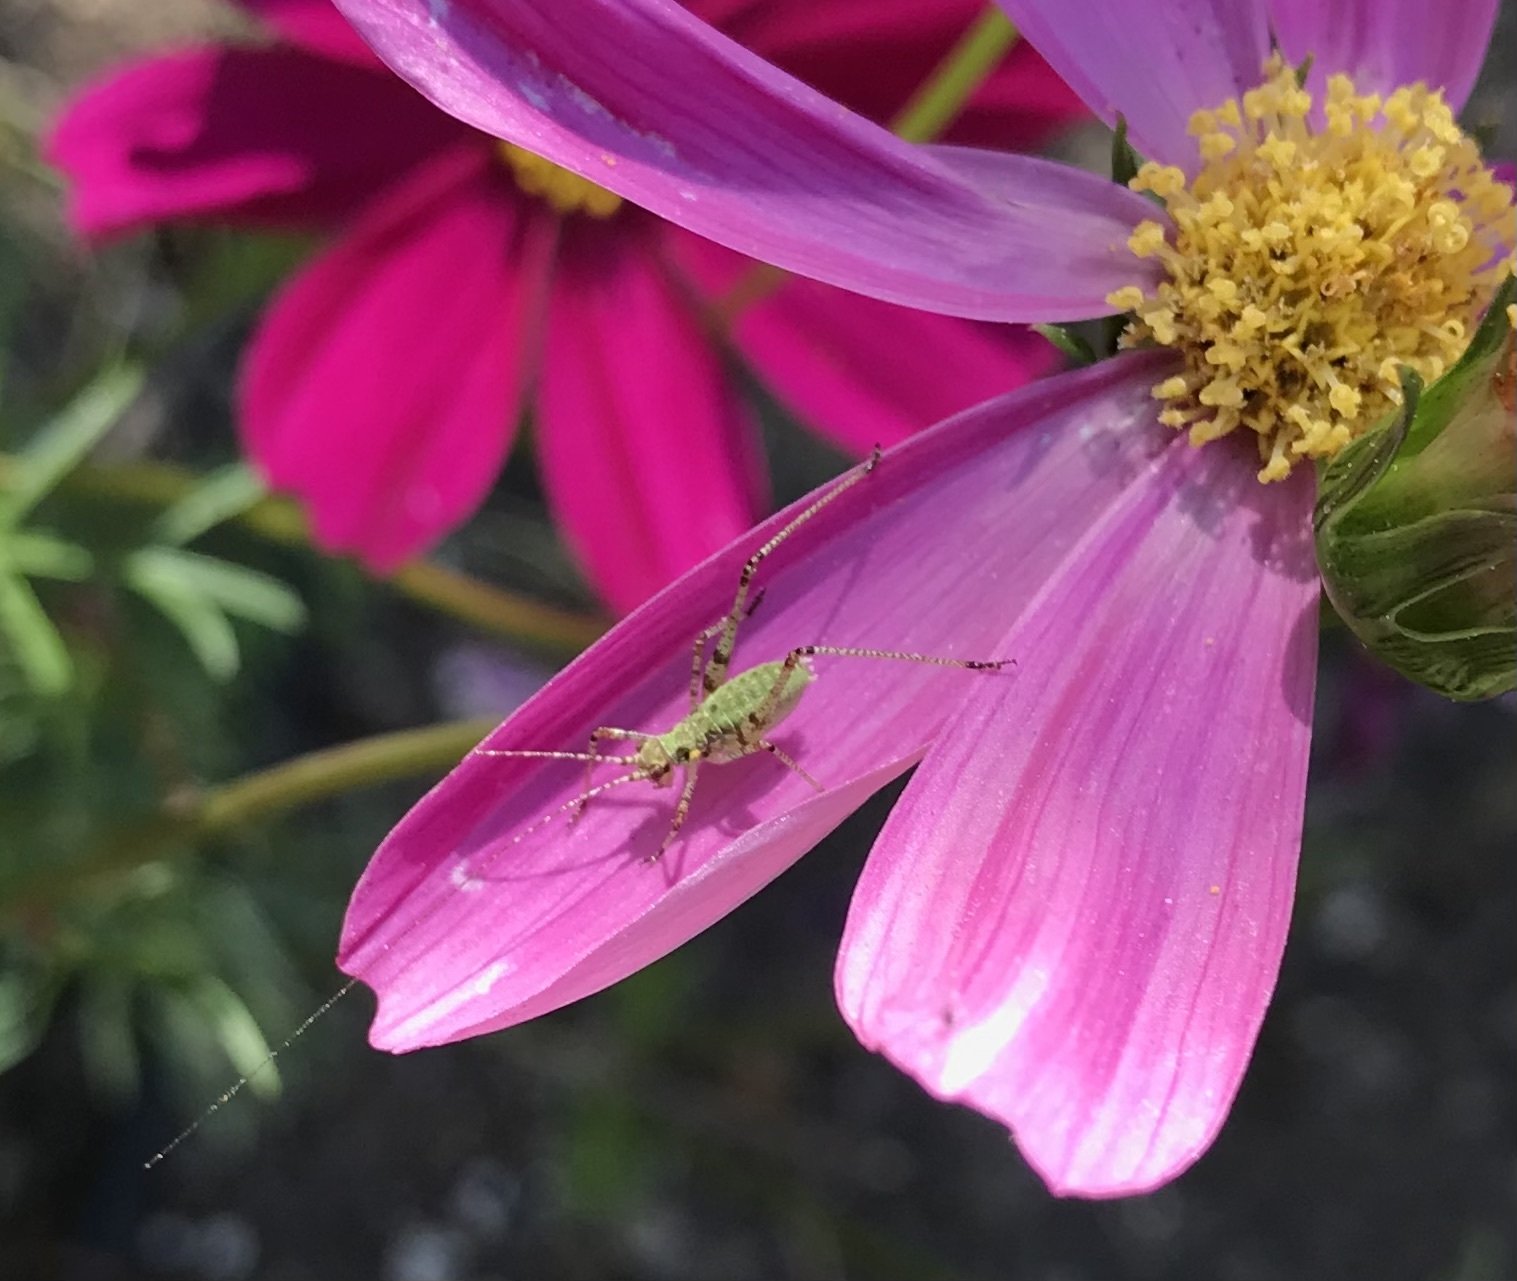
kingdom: Animalia
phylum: Arthropoda
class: Insecta
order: Orthoptera
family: Tettigoniidae
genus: Phaneroptera
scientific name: Phaneroptera nana
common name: Southern sickle bush-cricket
